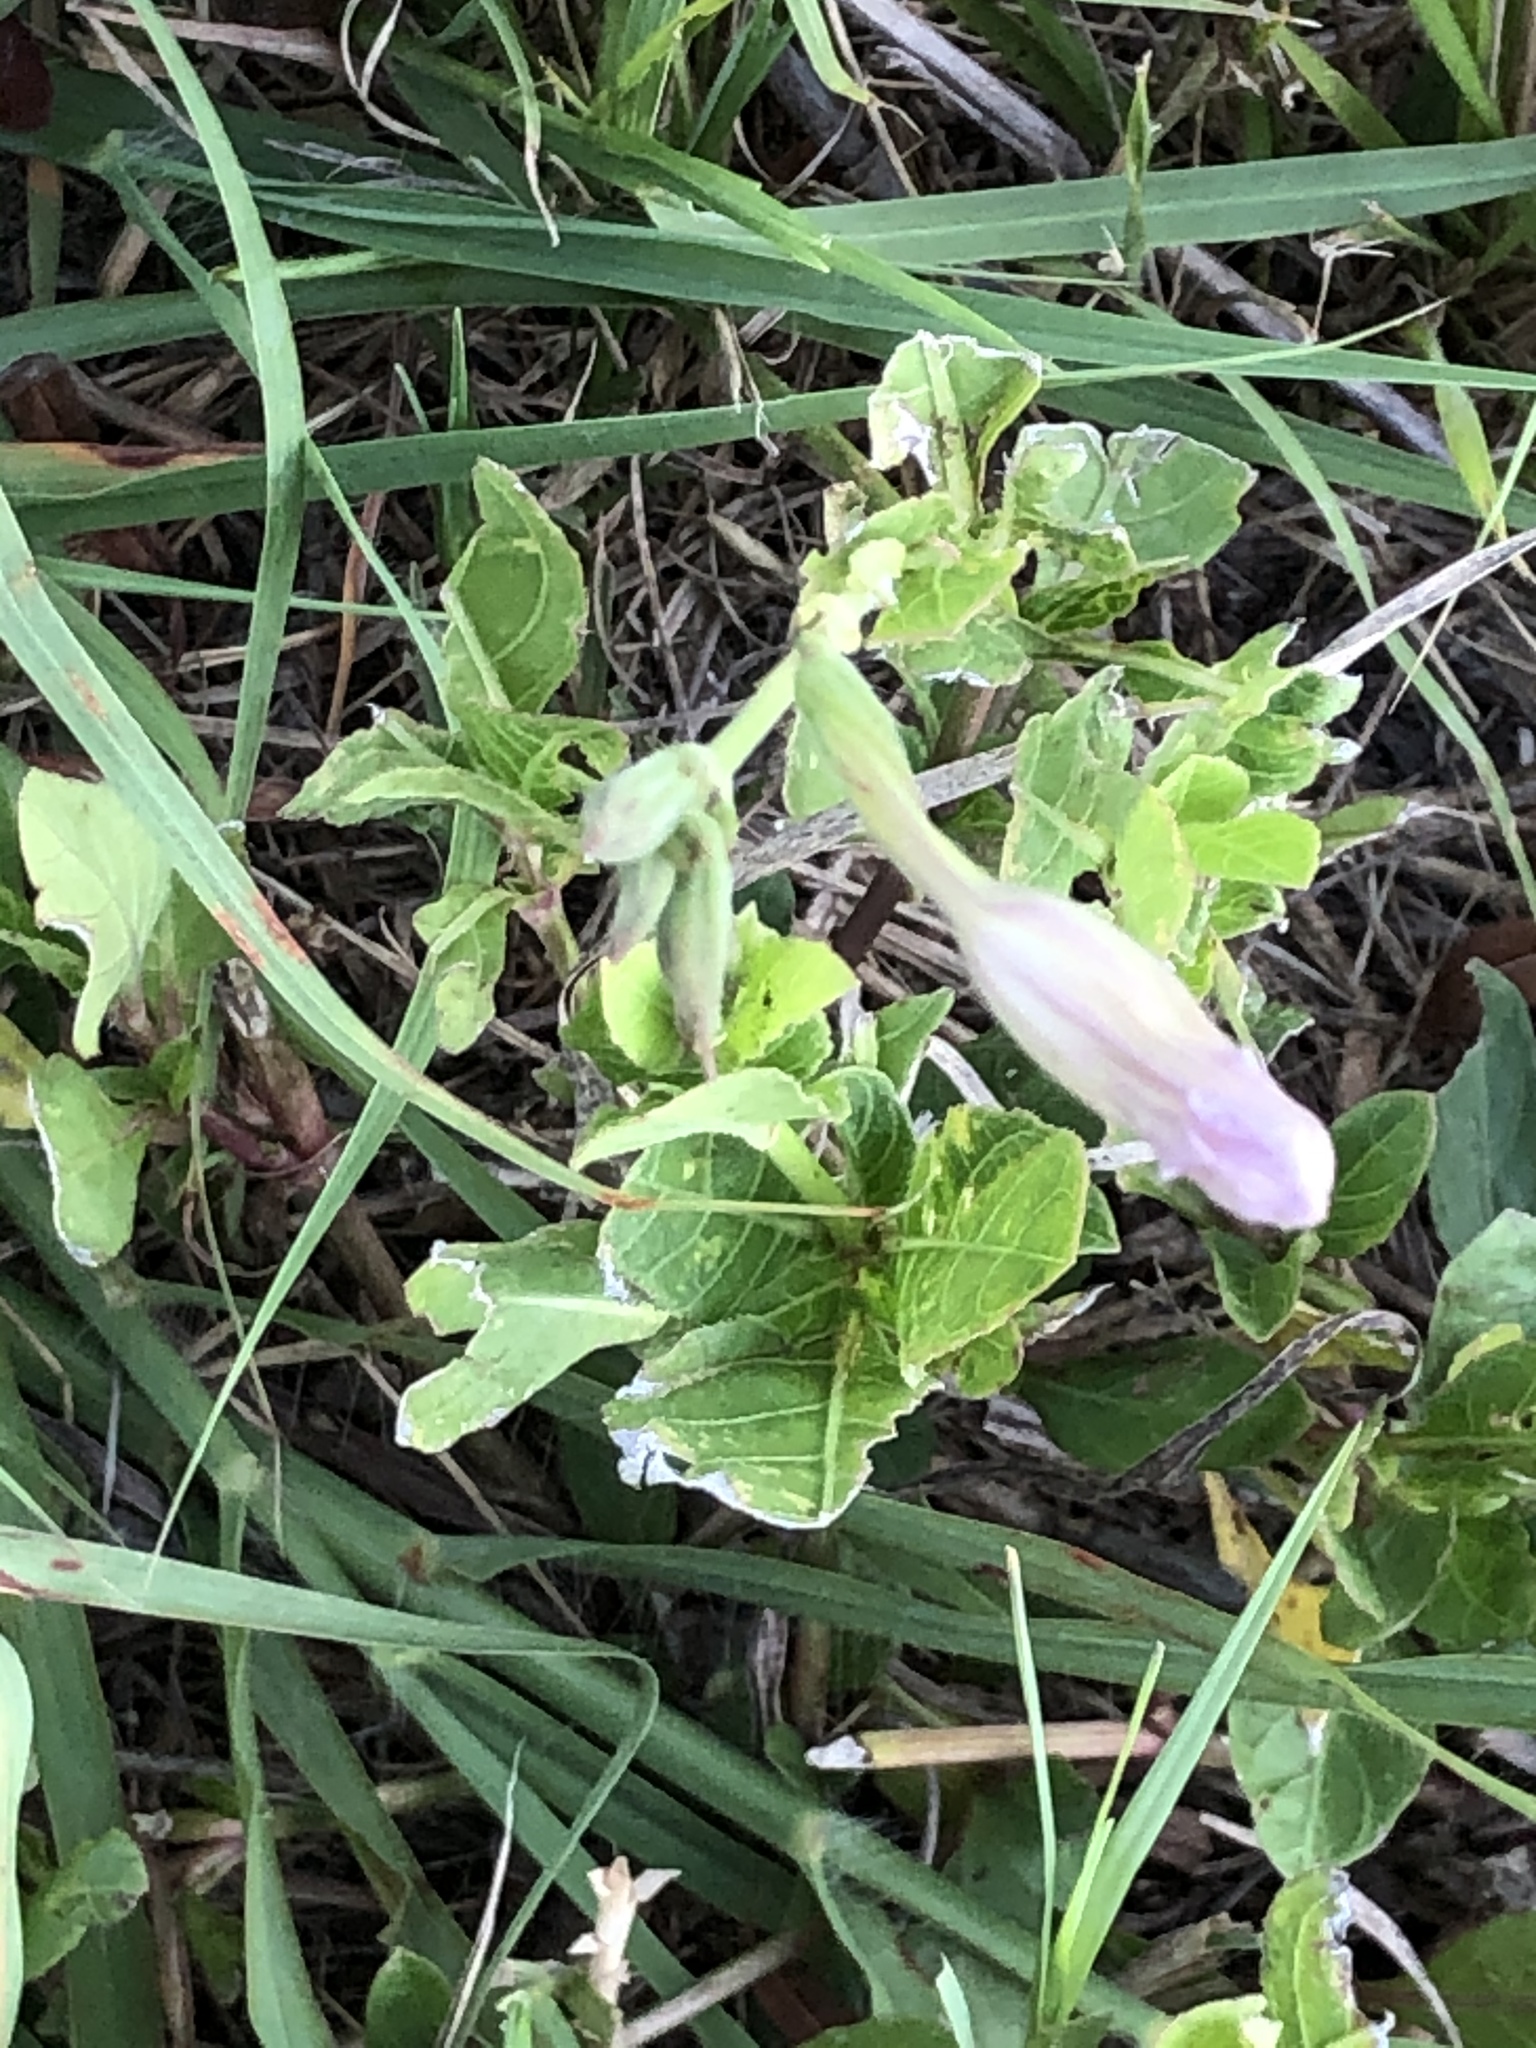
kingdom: Plantae
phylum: Tracheophyta
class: Magnoliopsida
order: Lamiales
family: Acanthaceae
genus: Ruellia
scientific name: Ruellia ciliatiflora
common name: Hairyflower wild petunia
